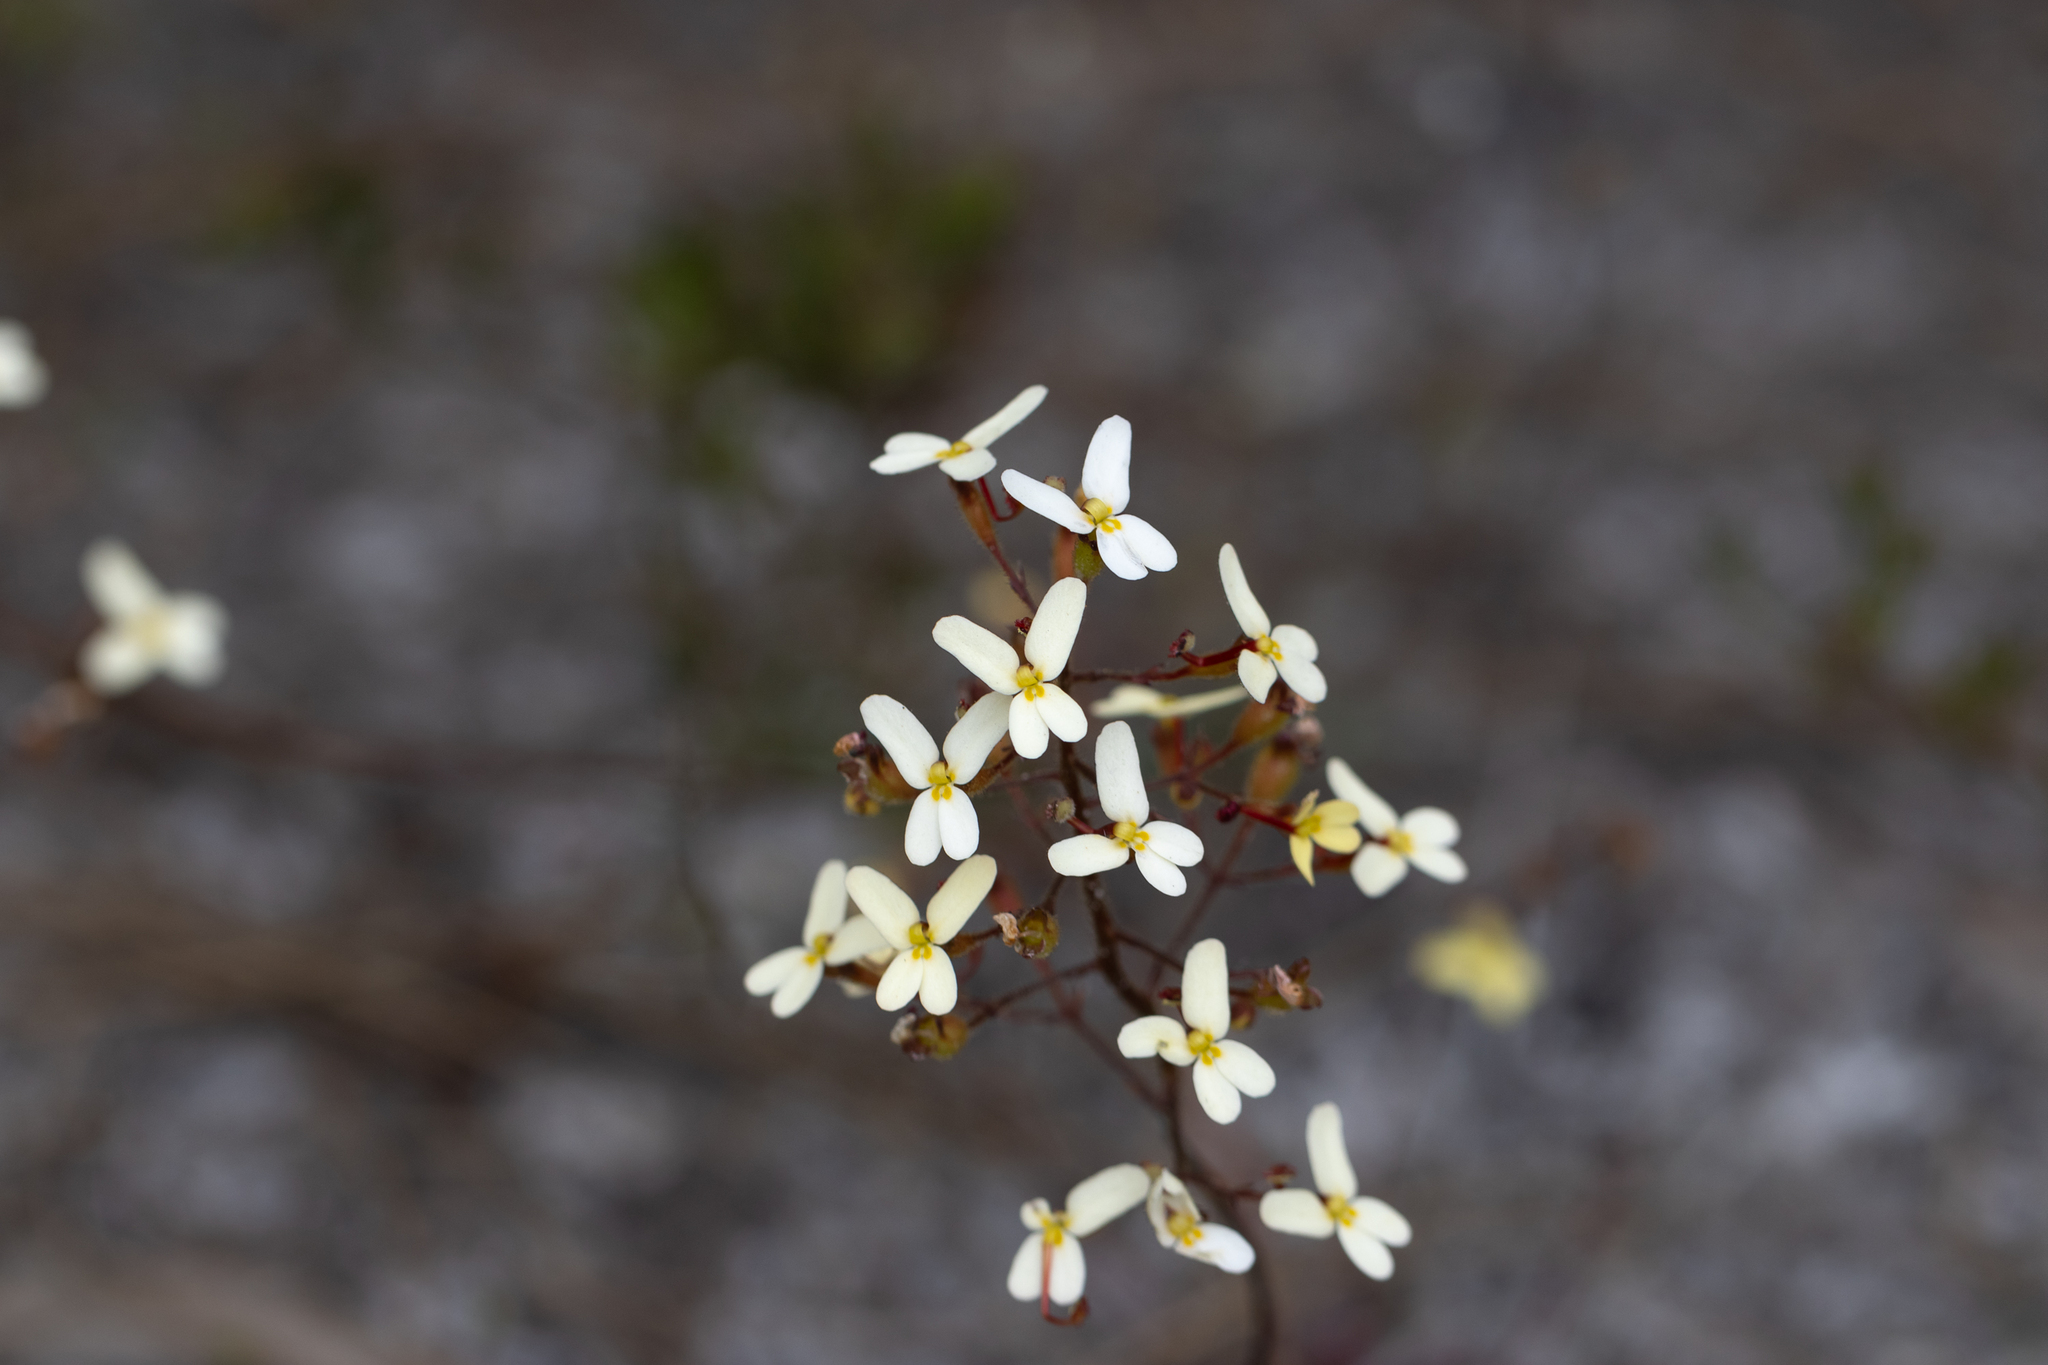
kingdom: Plantae
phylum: Tracheophyta
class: Magnoliopsida
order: Asterales
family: Stylidiaceae
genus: Stylidium
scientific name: Stylidium piliferum
